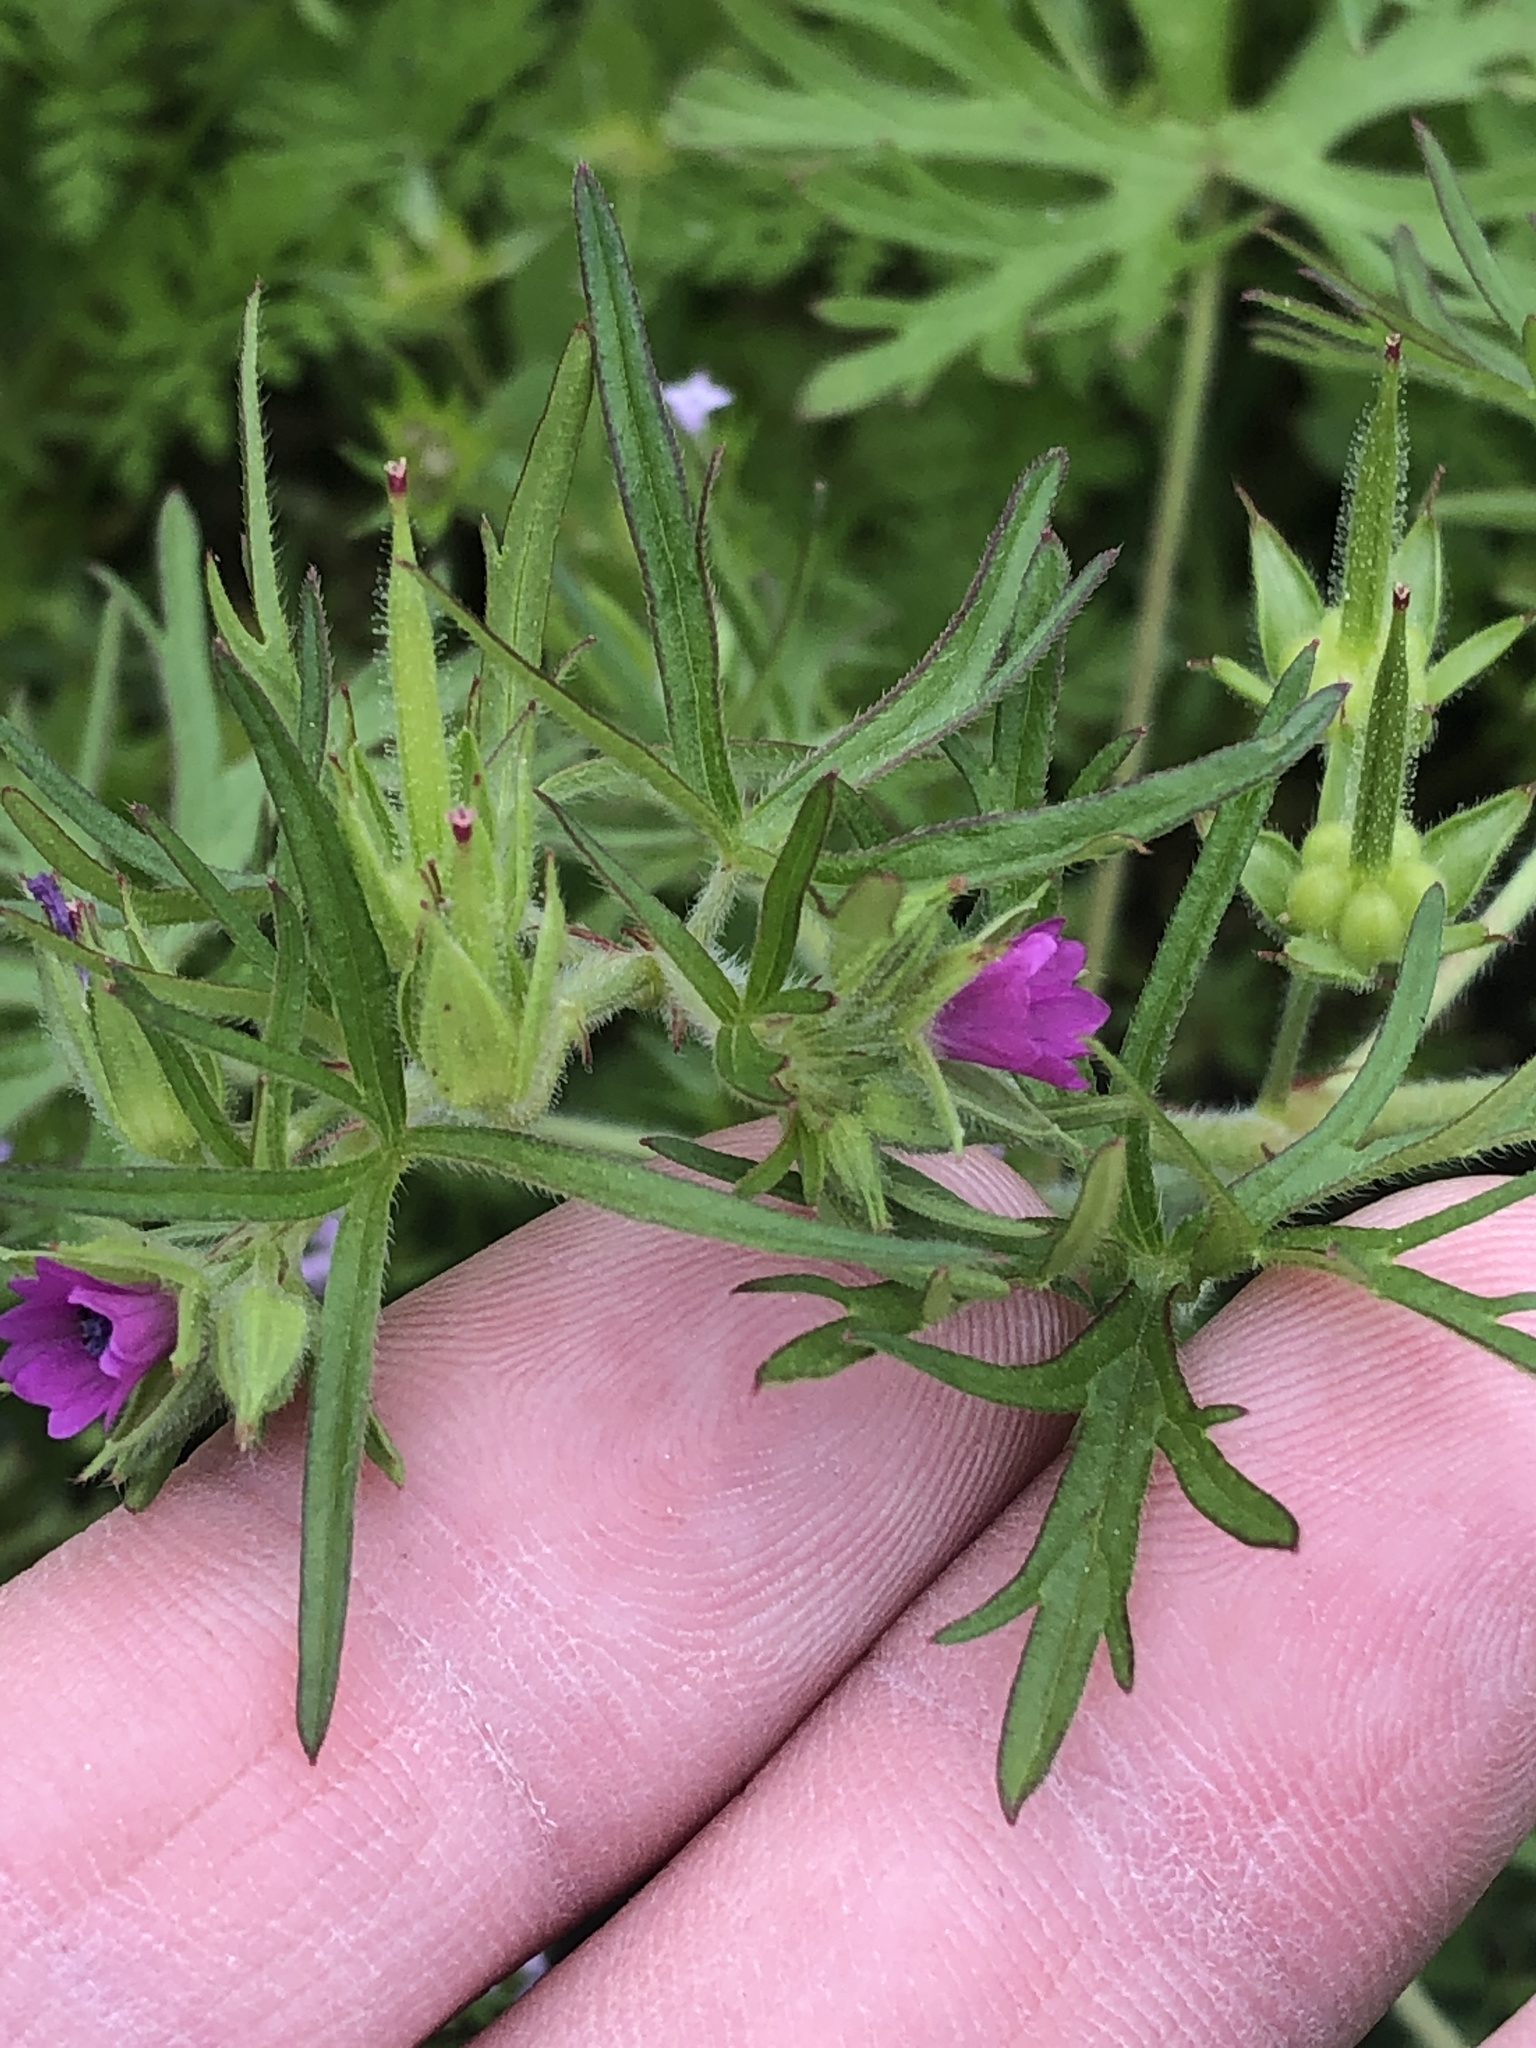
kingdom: Plantae
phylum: Tracheophyta
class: Magnoliopsida
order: Geraniales
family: Geraniaceae
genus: Geranium
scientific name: Geranium dissectum
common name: Cut-leaved crane's-bill
